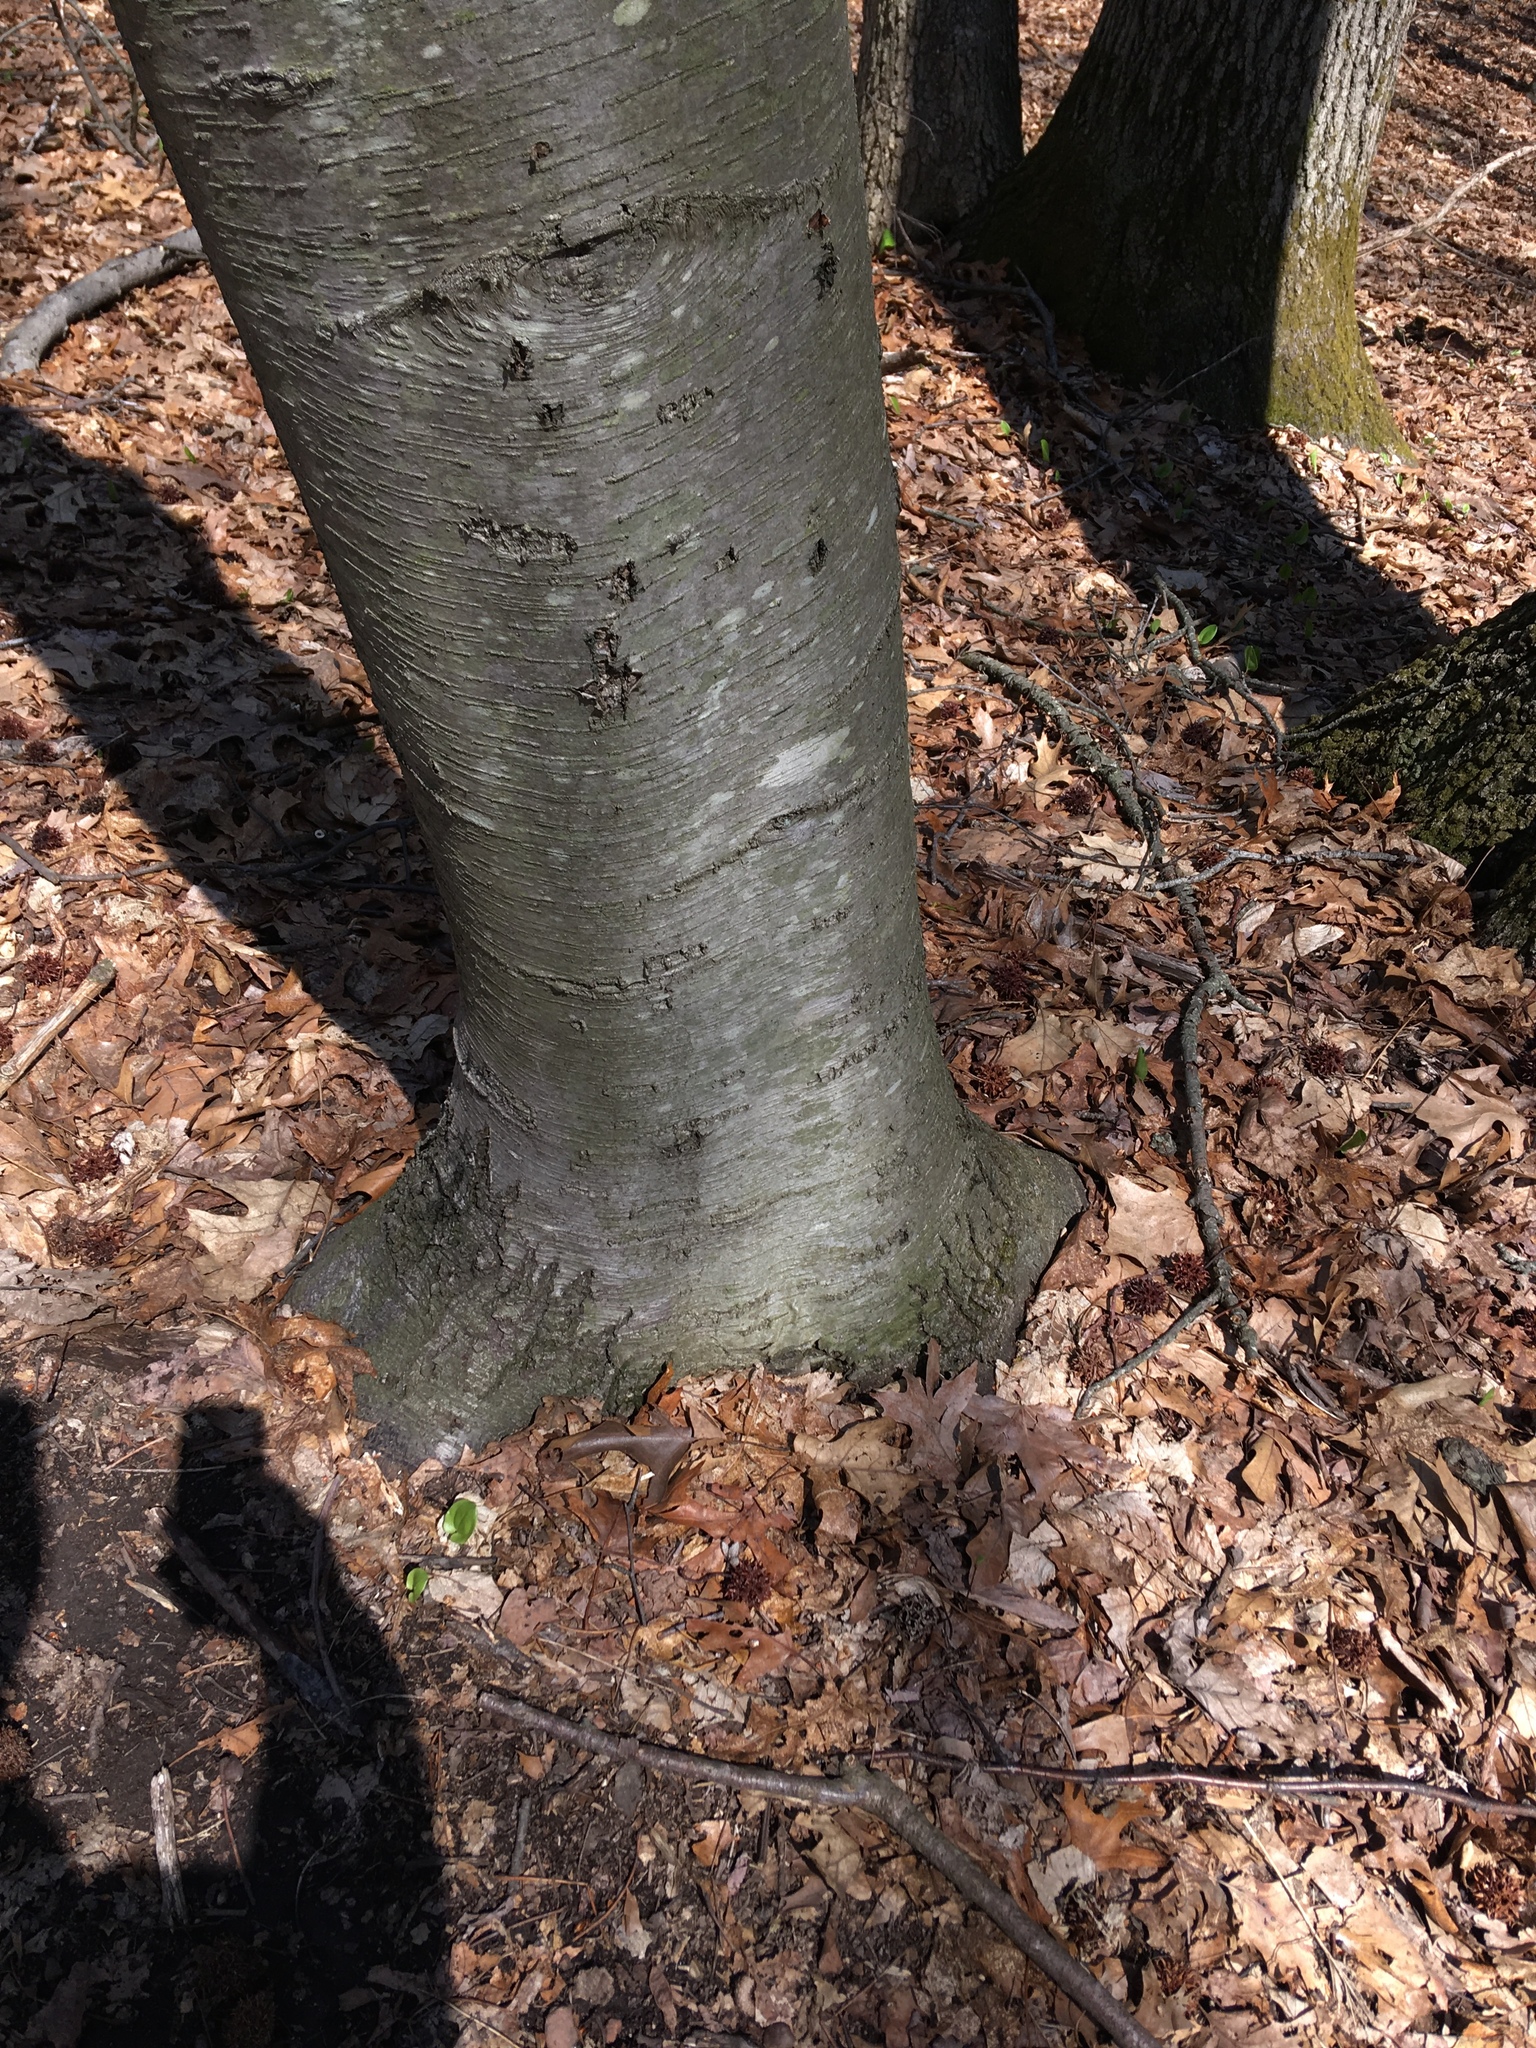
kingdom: Plantae
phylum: Tracheophyta
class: Magnoliopsida
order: Fagales
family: Betulaceae
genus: Betula
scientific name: Betula lenta
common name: Black birch
